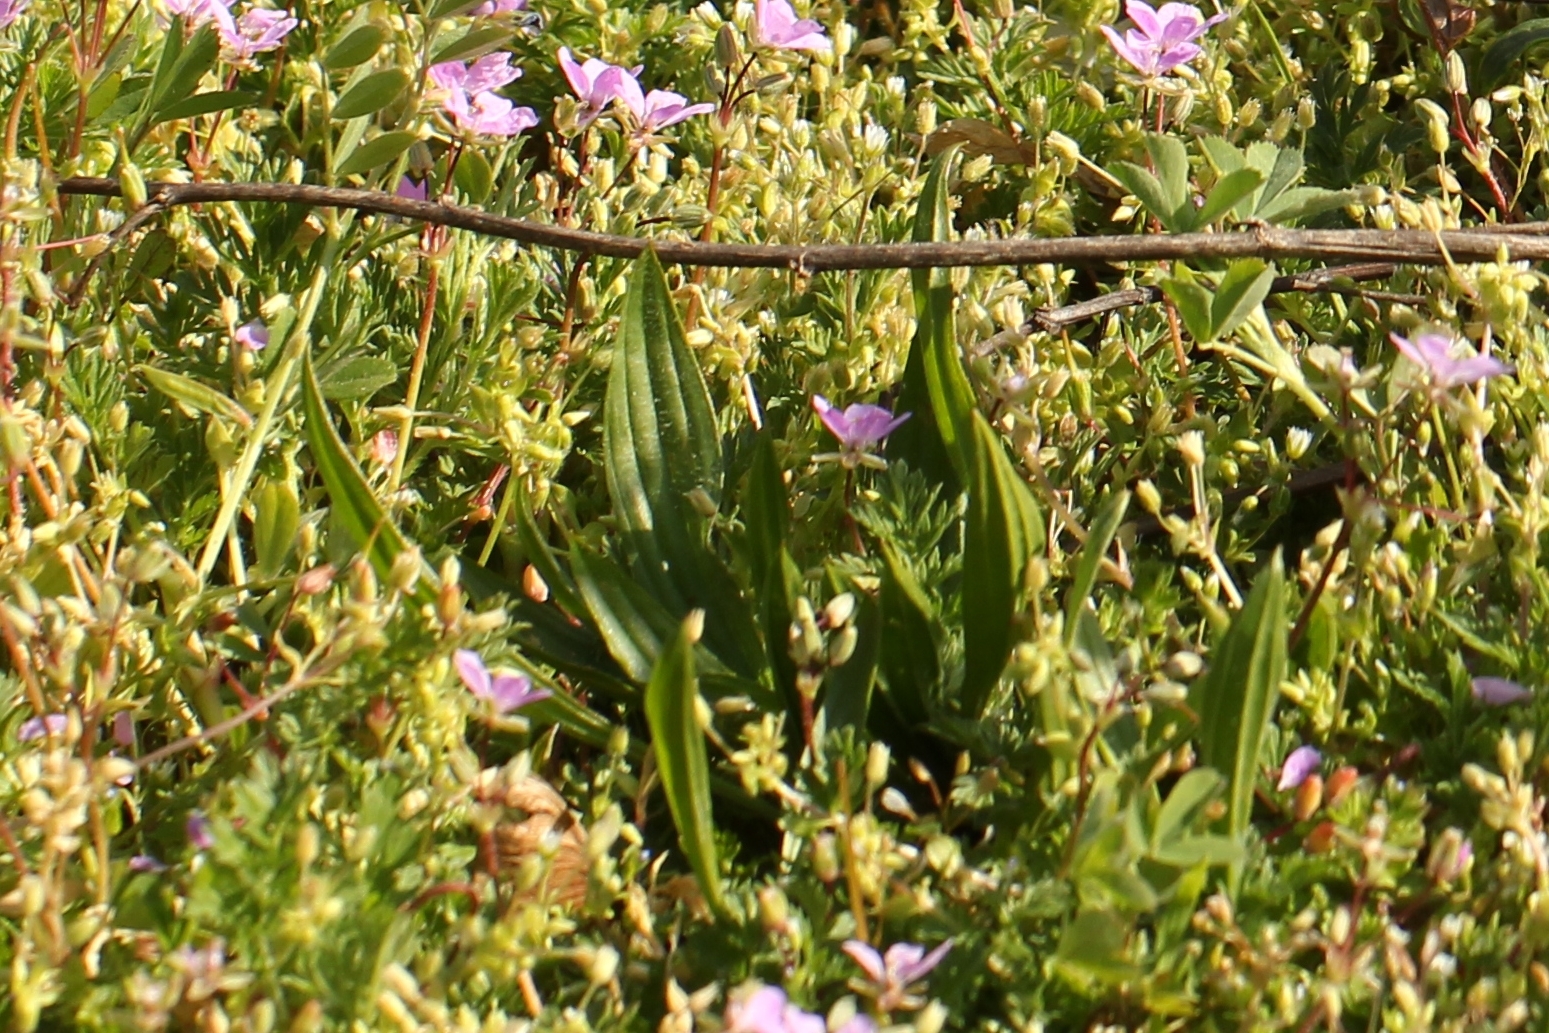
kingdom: Plantae
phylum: Tracheophyta
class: Magnoliopsida
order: Lamiales
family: Plantaginaceae
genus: Plantago
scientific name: Plantago lanceolata
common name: Ribwort plantain
